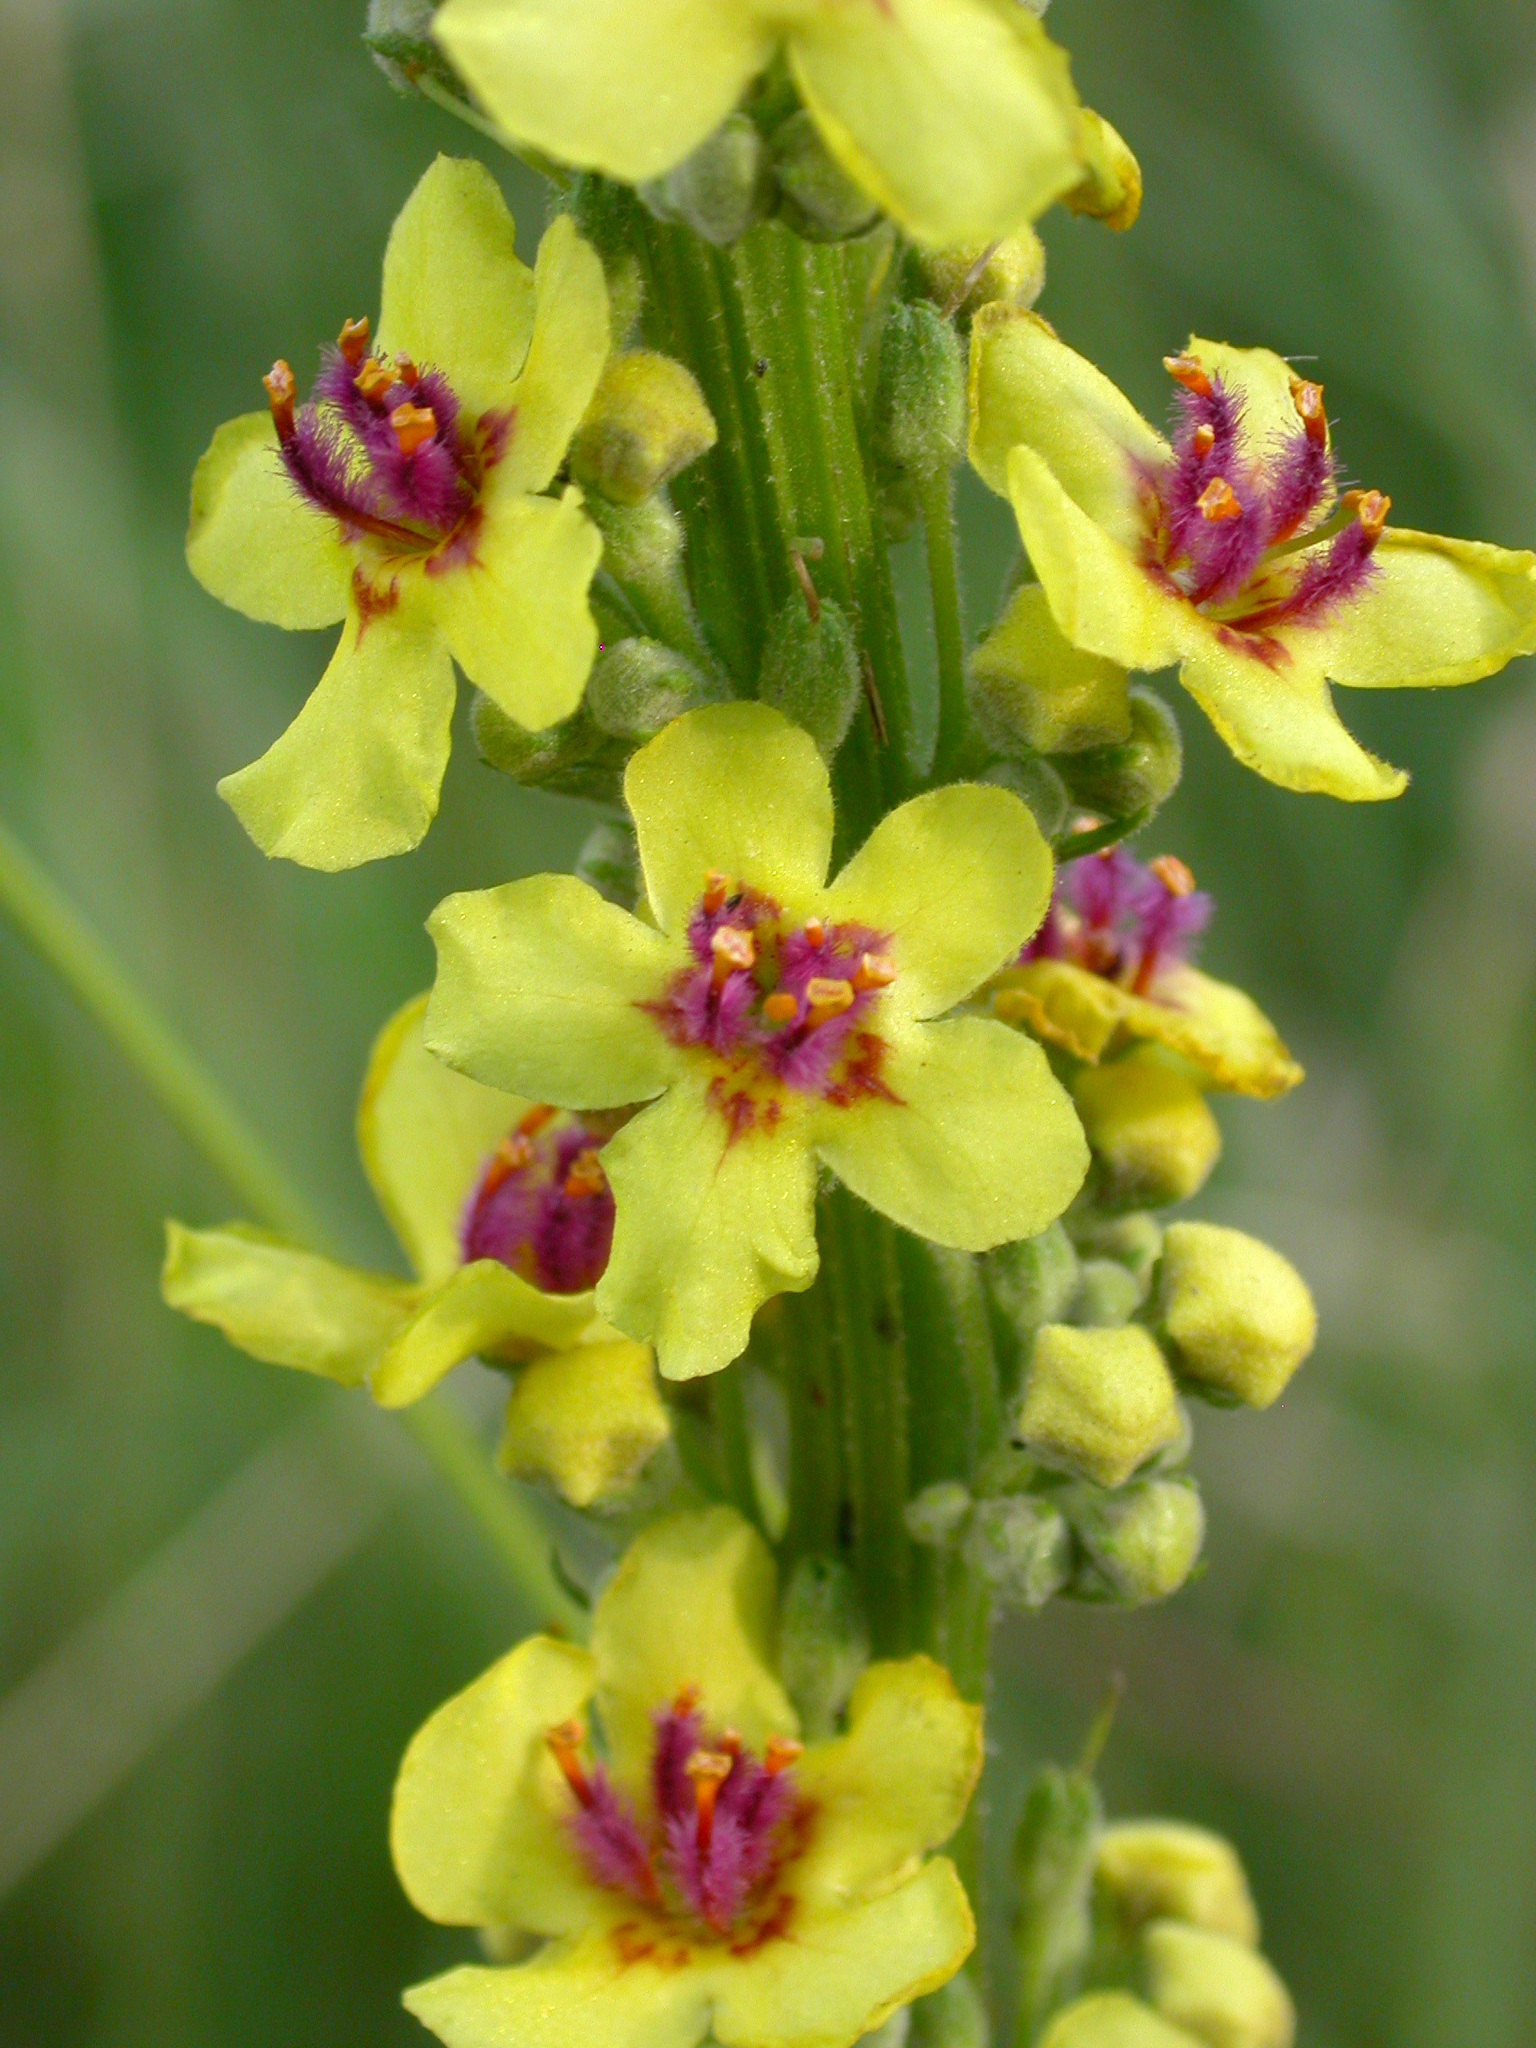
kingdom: Plantae
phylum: Tracheophyta
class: Magnoliopsida
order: Lamiales
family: Scrophulariaceae
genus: Verbascum
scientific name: Verbascum nigrum
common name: Dark mullein
